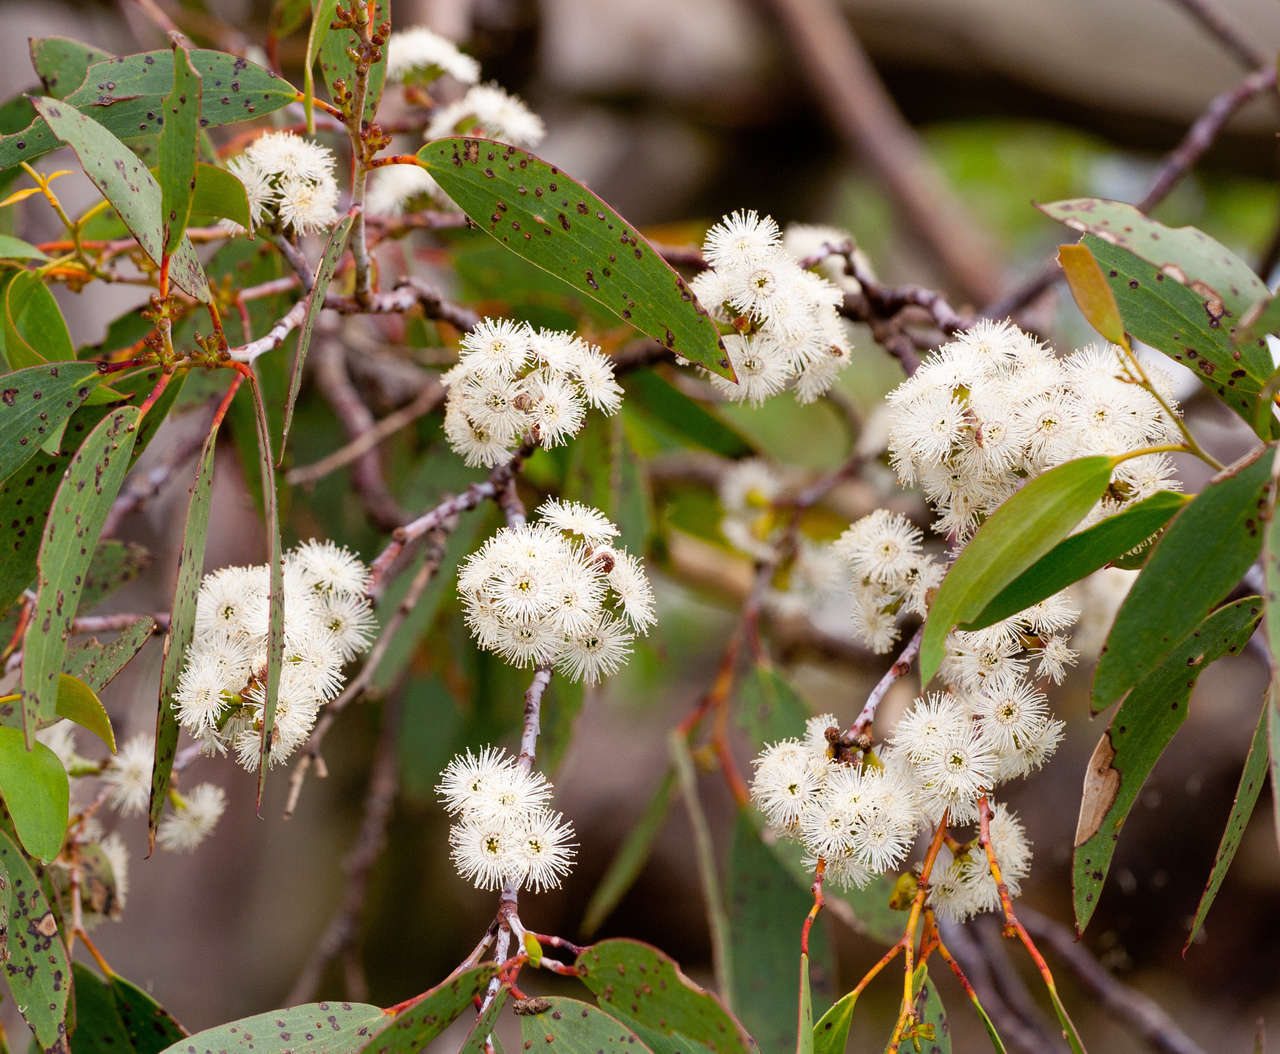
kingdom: Plantae
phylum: Tracheophyta
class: Magnoliopsida
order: Myrtales
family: Myrtaceae
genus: Eucalyptus
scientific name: Eucalyptus pauciflora
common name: Snow gum
